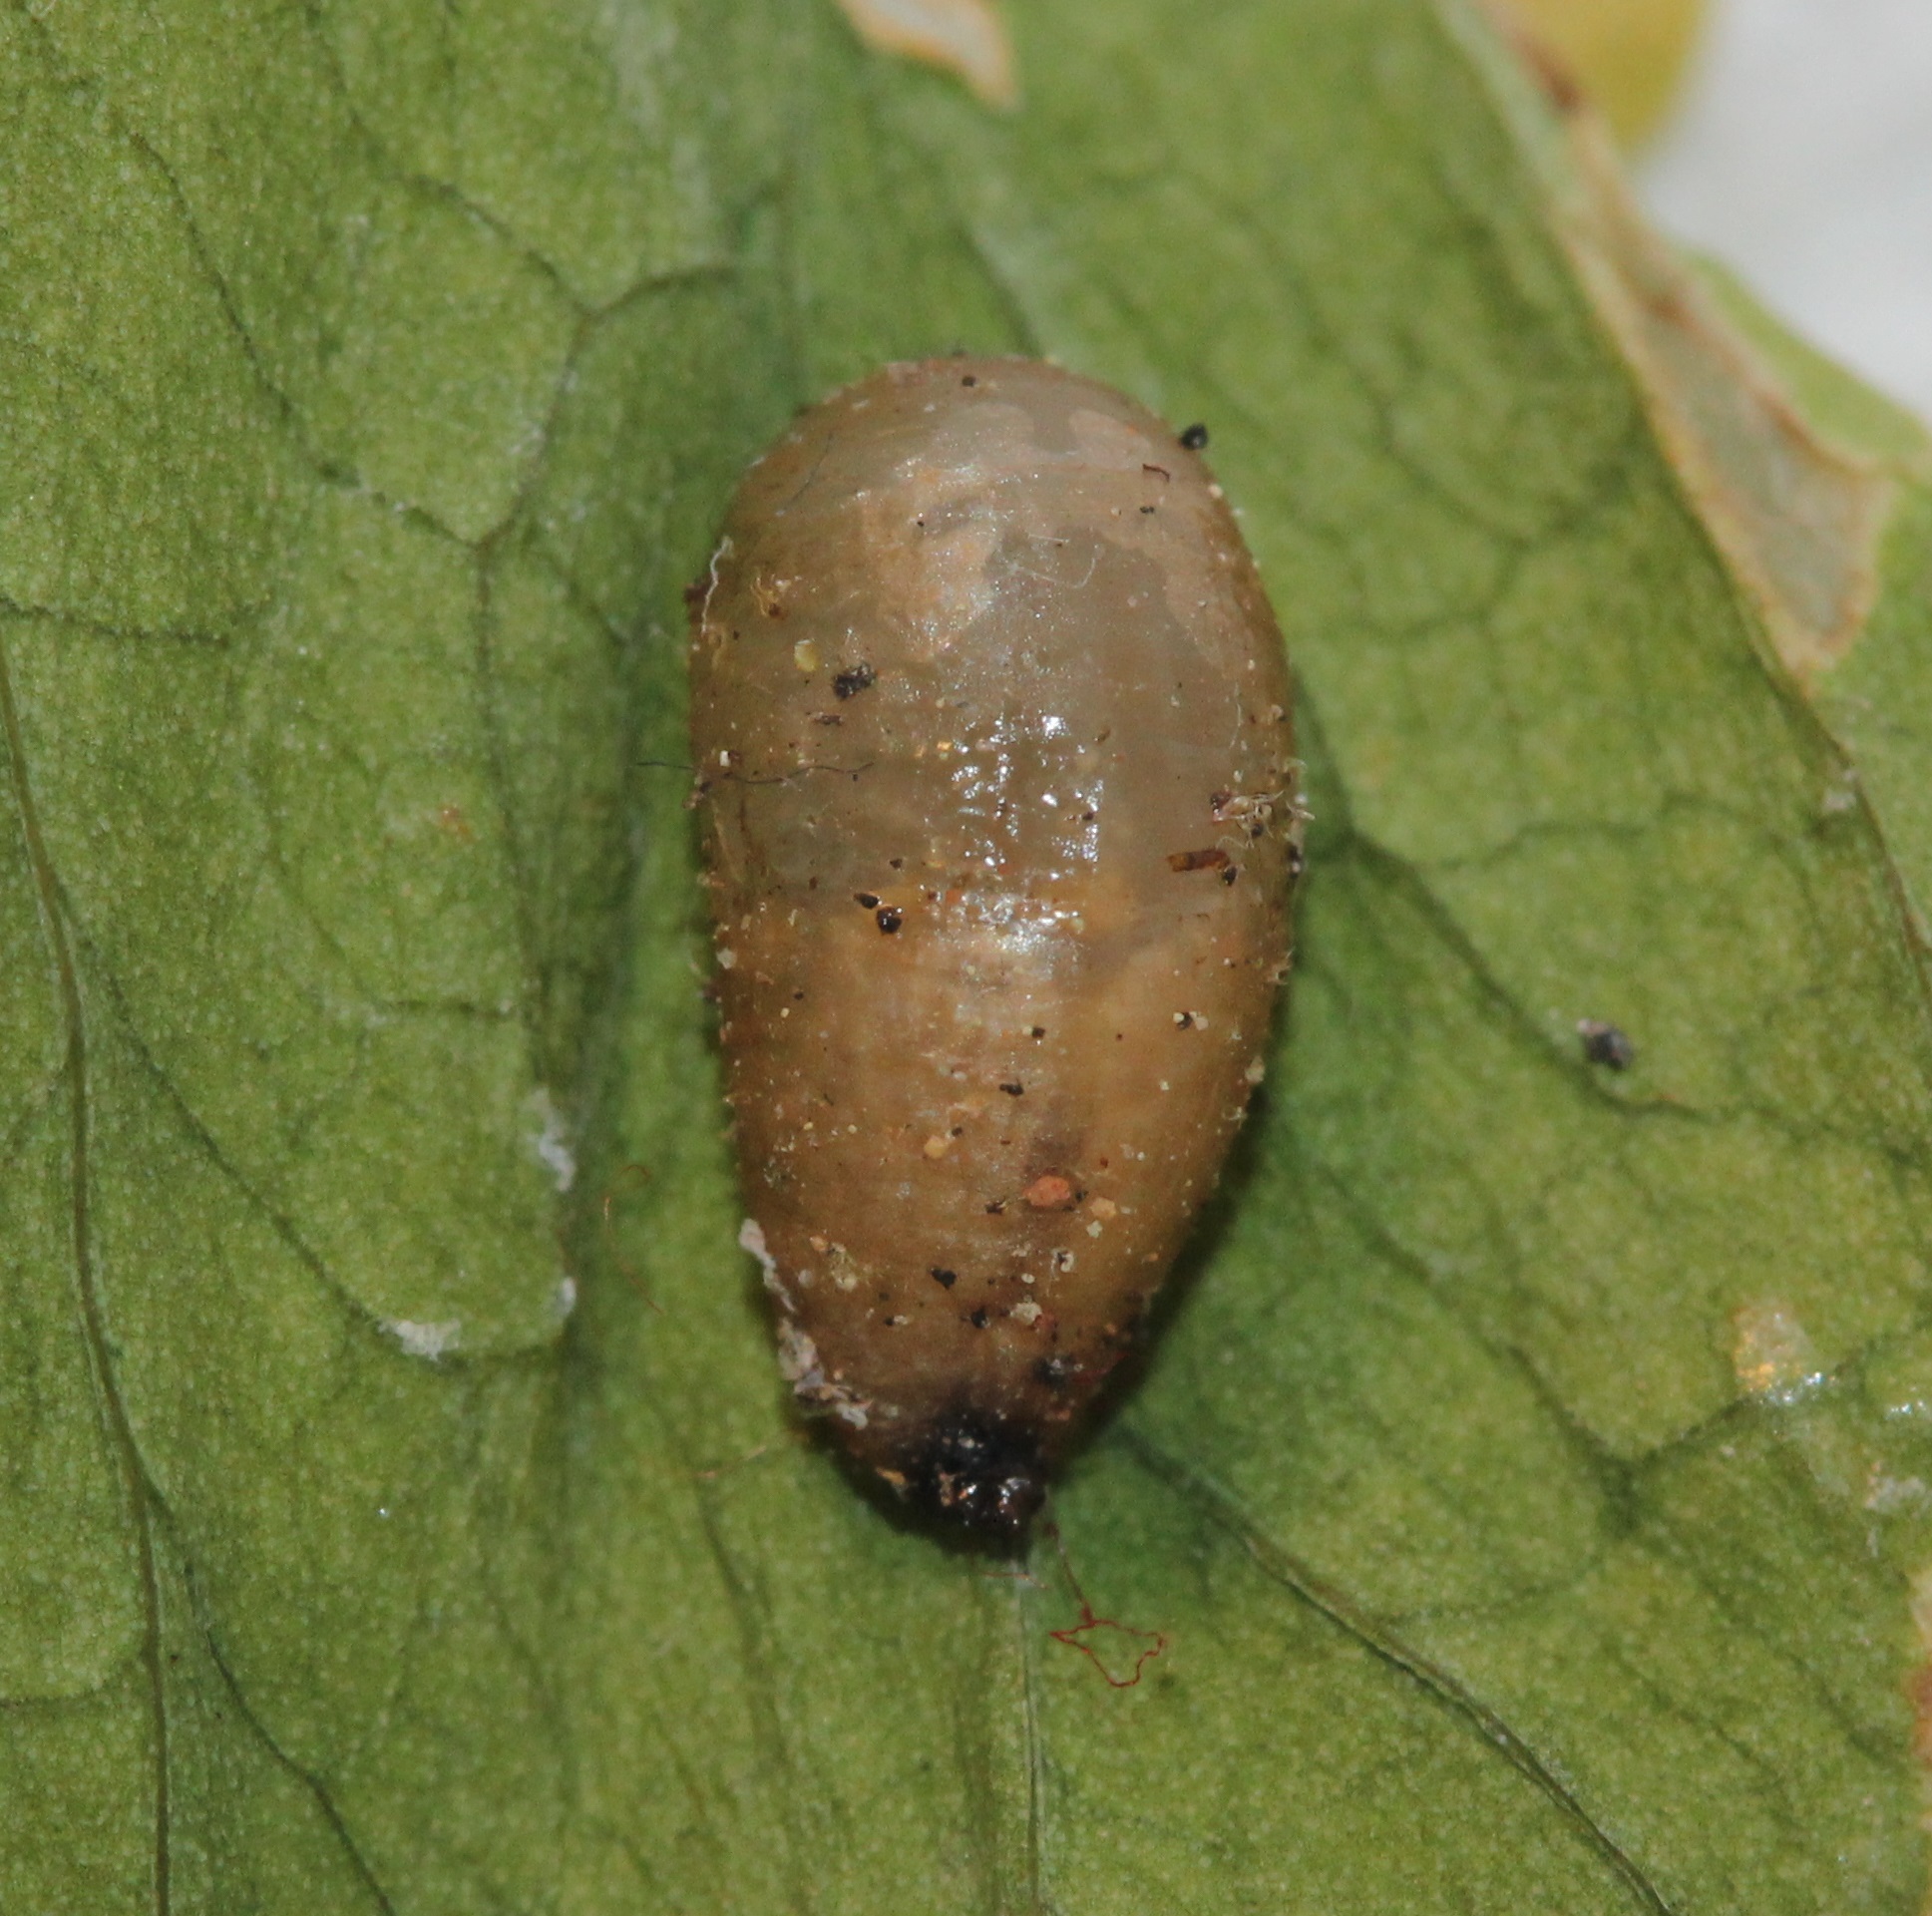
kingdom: Animalia
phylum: Arthropoda
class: Insecta
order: Diptera
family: Syrphidae
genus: Syrphus
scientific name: Syrphus knabi
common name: Eastern flower fly
